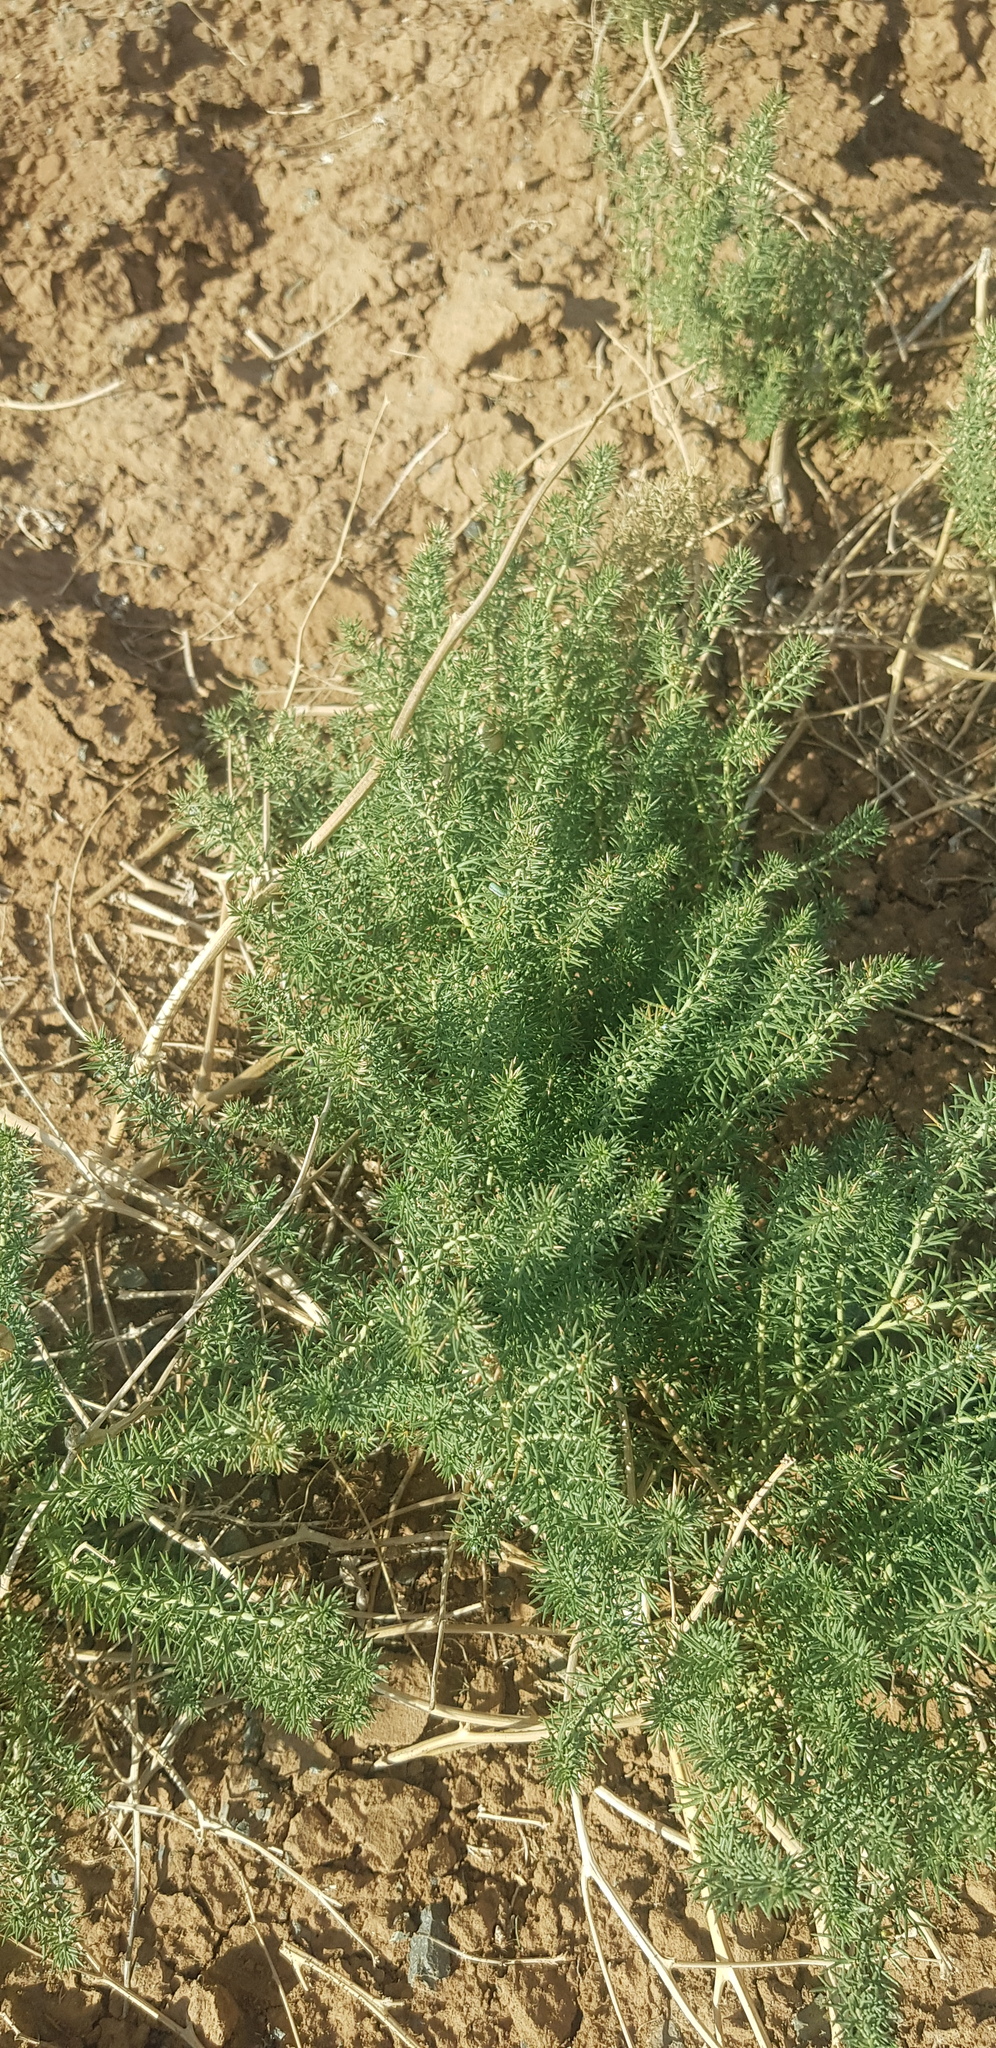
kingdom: Plantae
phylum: Tracheophyta
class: Magnoliopsida
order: Sapindales
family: Tetradiclidaceae
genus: Peganum
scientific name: Peganum harmala
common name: Harmal peganum
